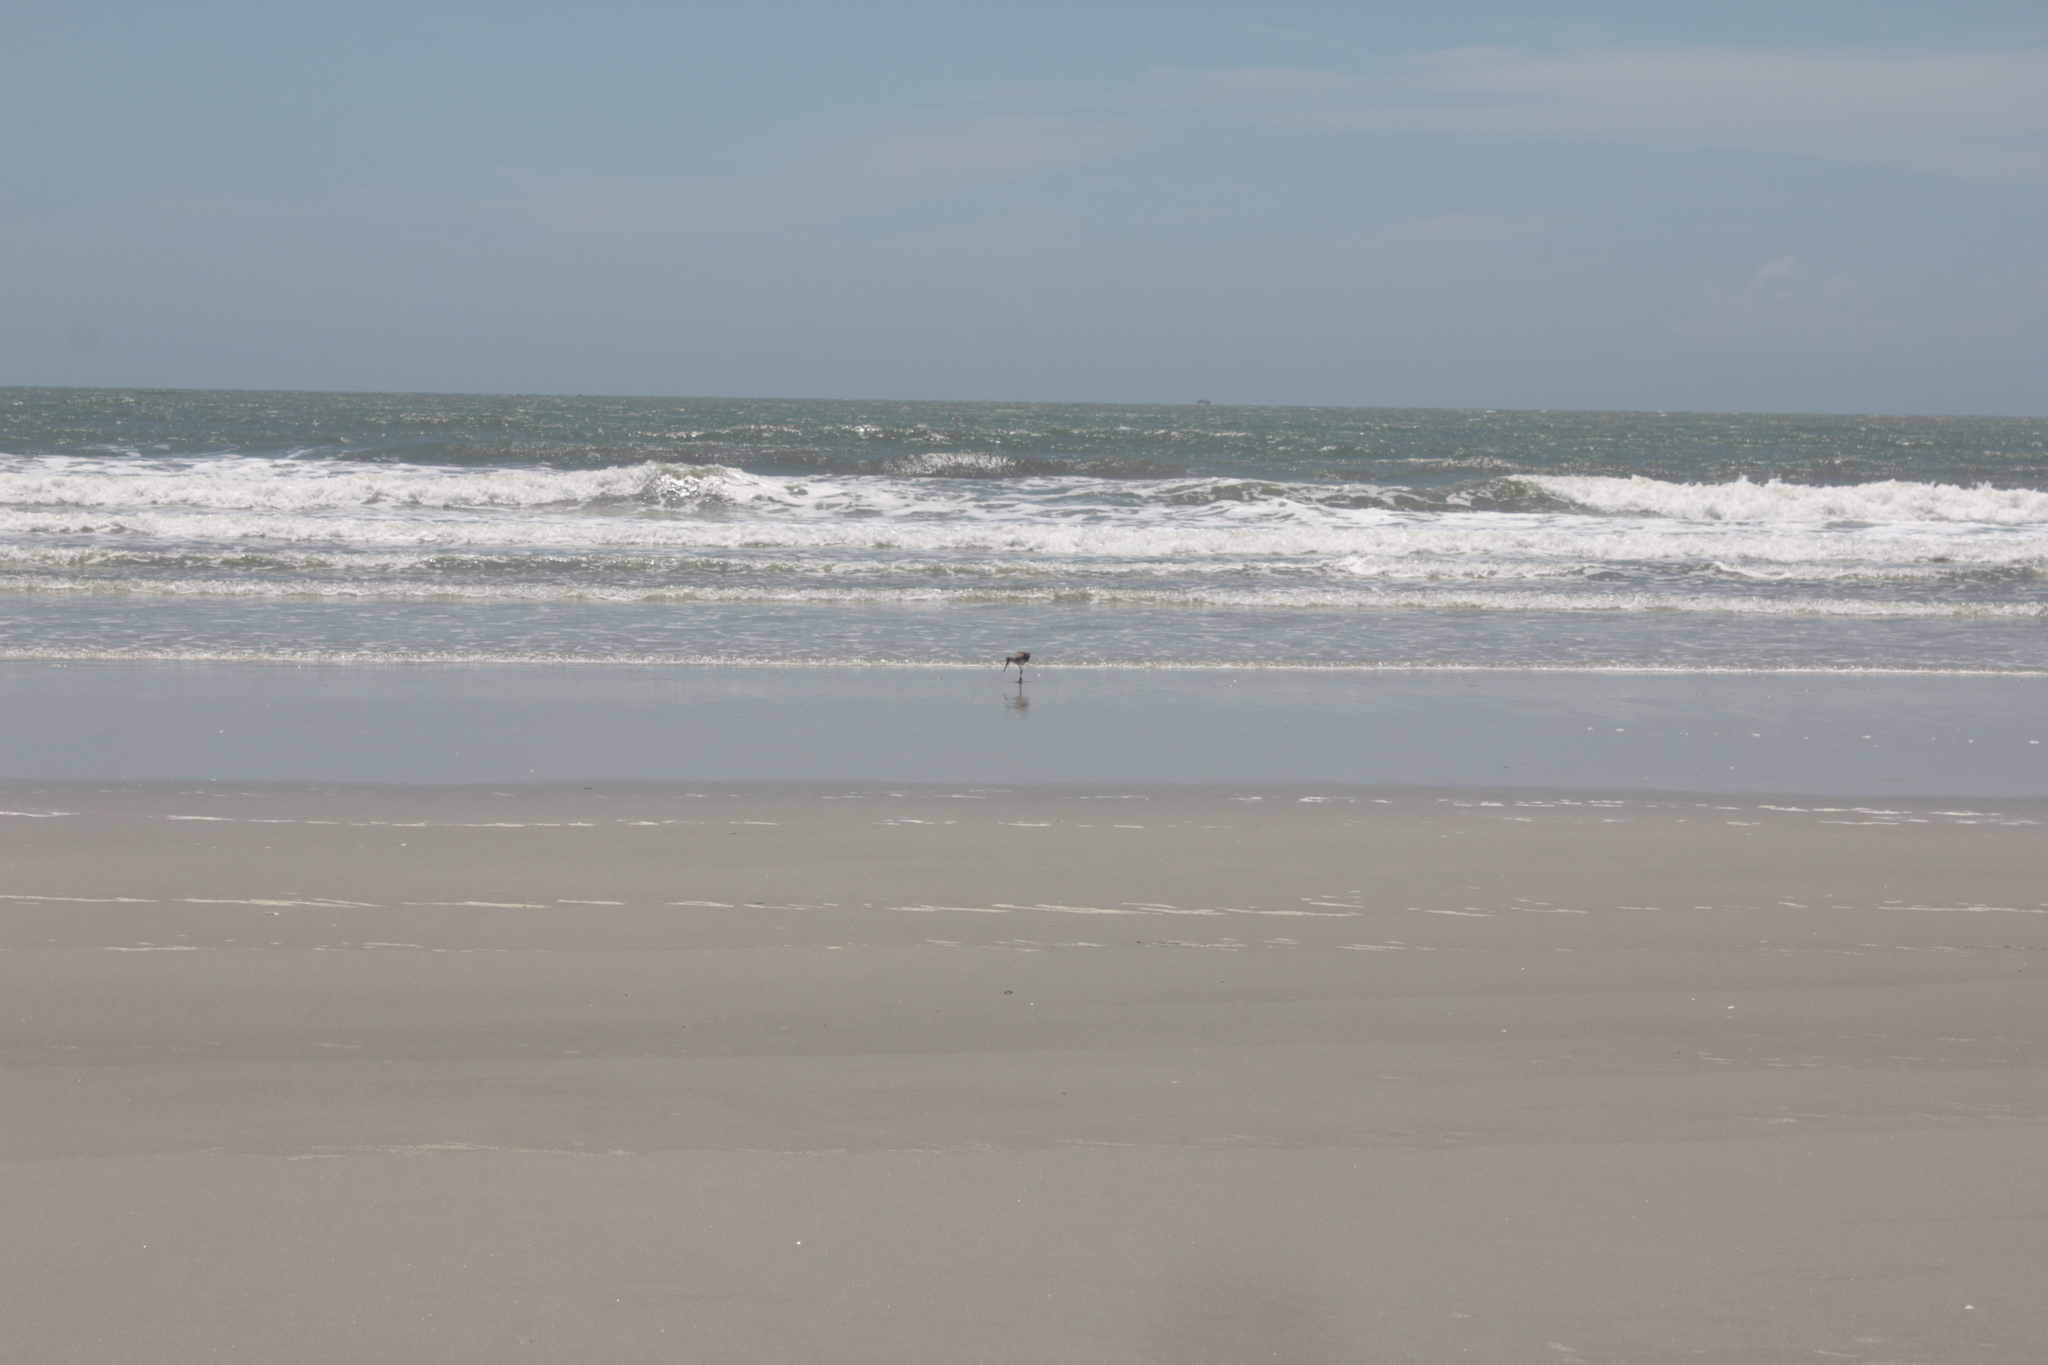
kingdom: Animalia
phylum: Chordata
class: Aves
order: Charadriiformes
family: Scolopacidae
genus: Tringa
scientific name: Tringa semipalmata
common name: Willet
